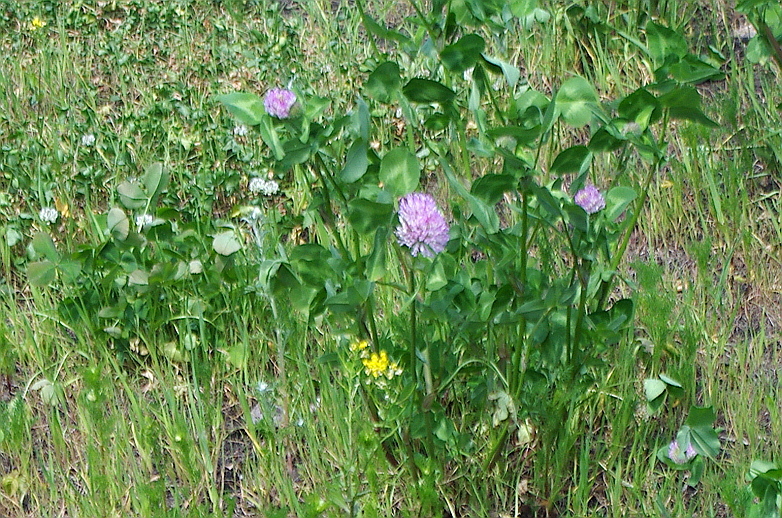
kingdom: Plantae
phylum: Tracheophyta
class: Magnoliopsida
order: Fabales
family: Fabaceae
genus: Trifolium
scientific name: Trifolium pratense
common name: Red clover
